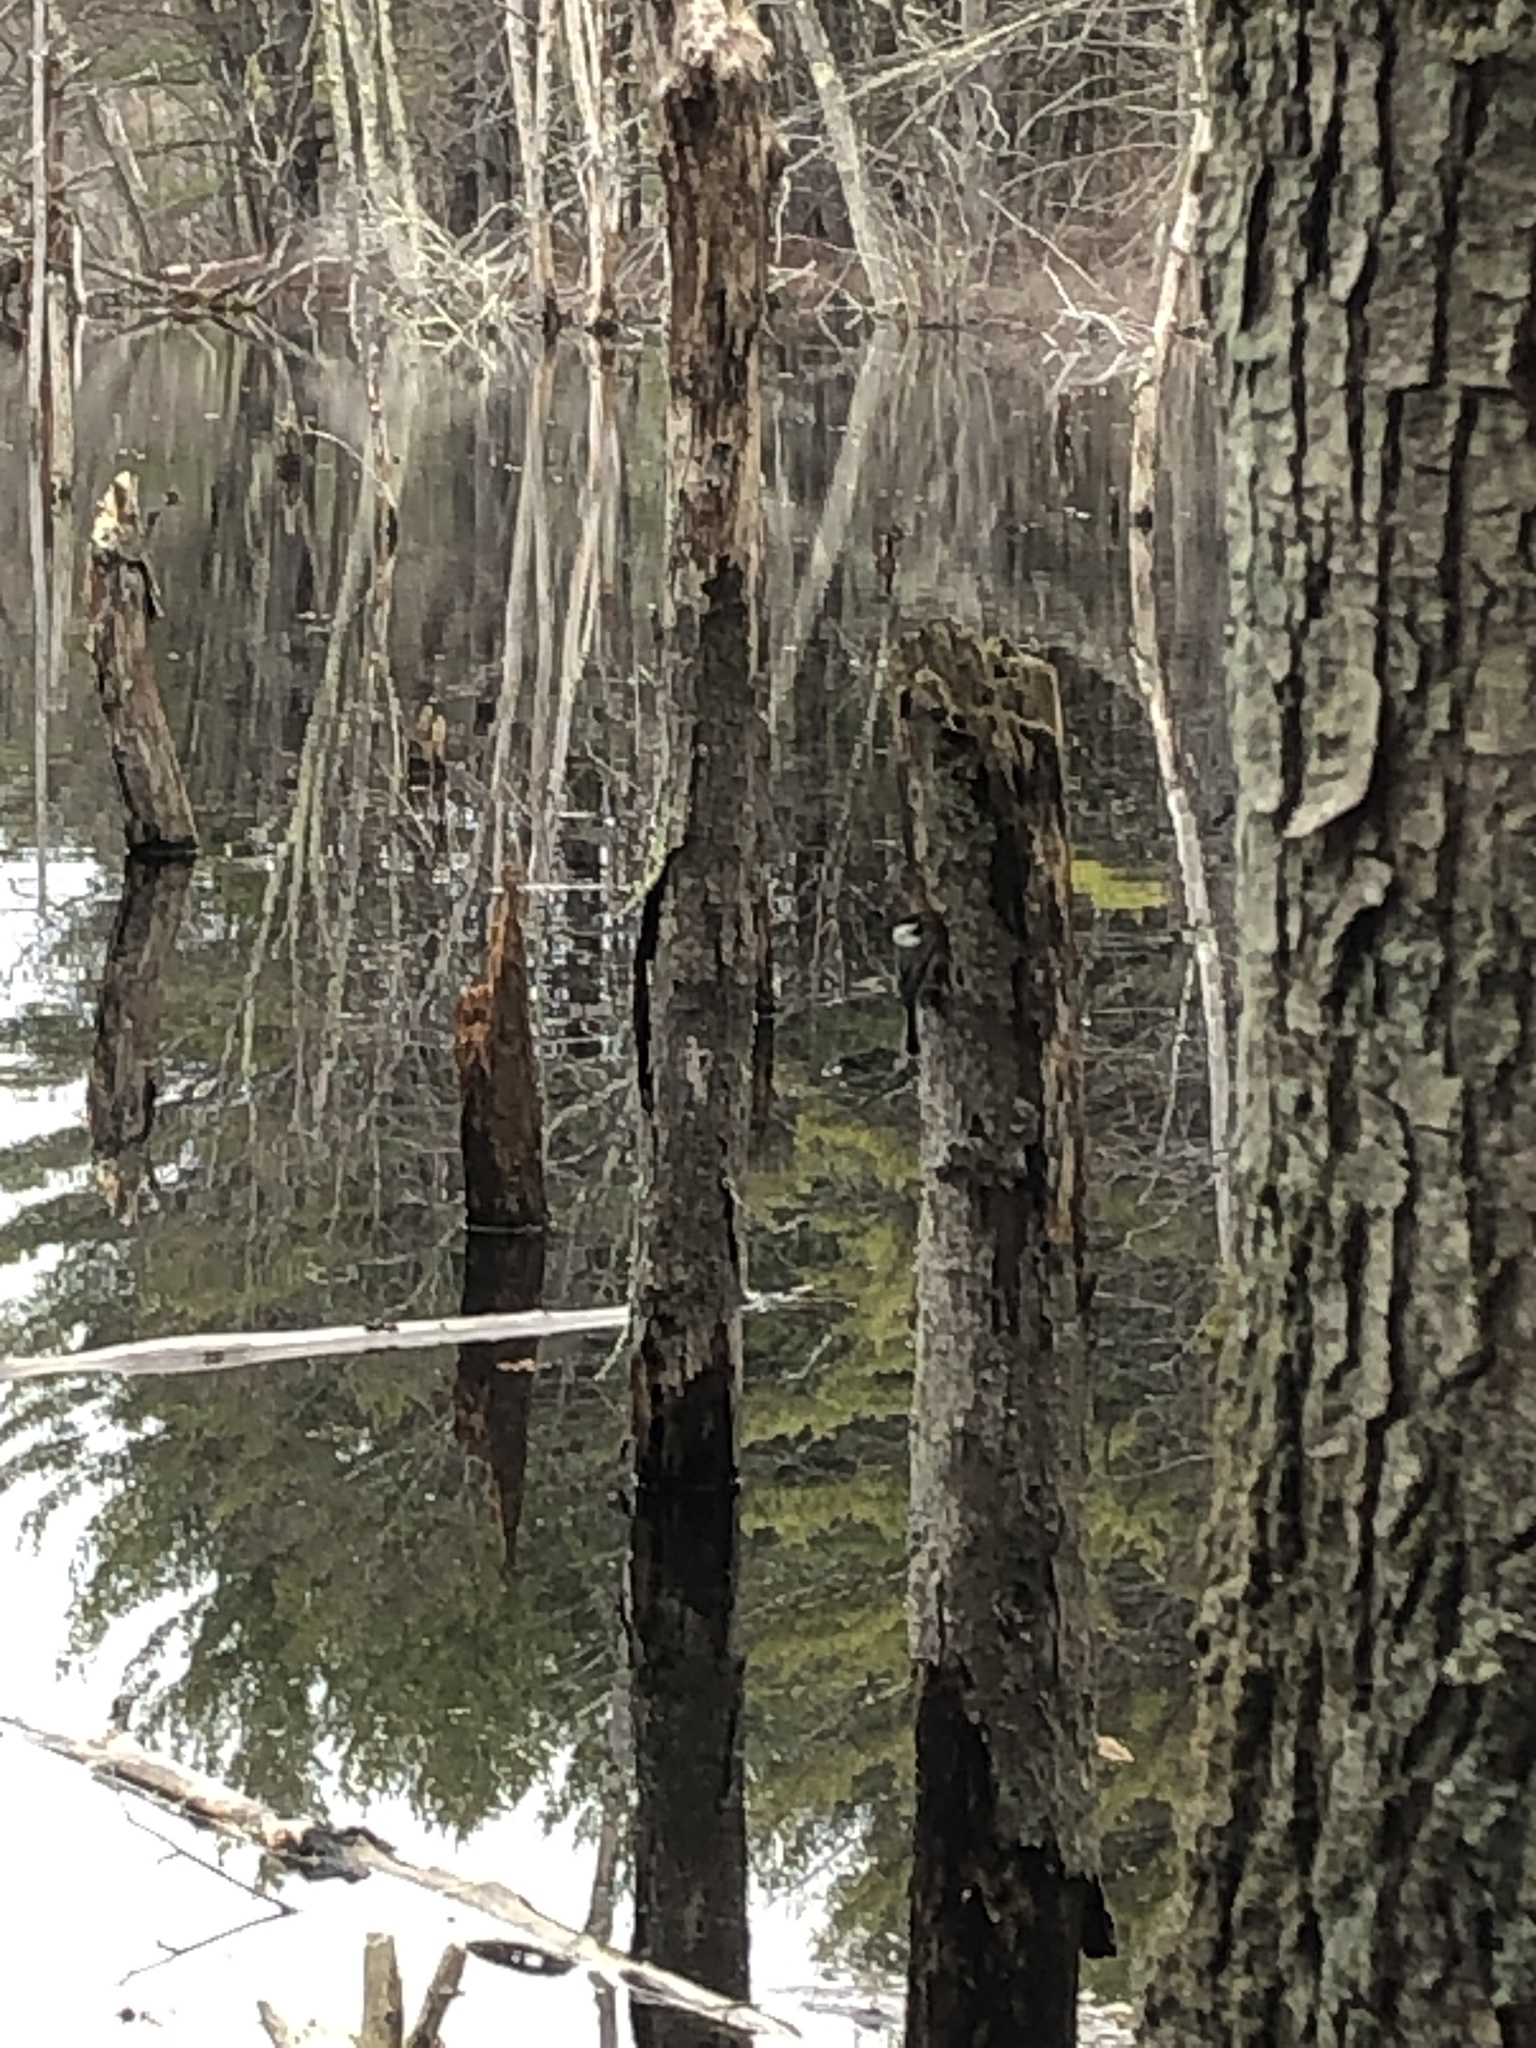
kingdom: Animalia
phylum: Chordata
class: Aves
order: Passeriformes
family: Paridae
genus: Poecile
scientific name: Poecile atricapillus
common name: Black-capped chickadee
